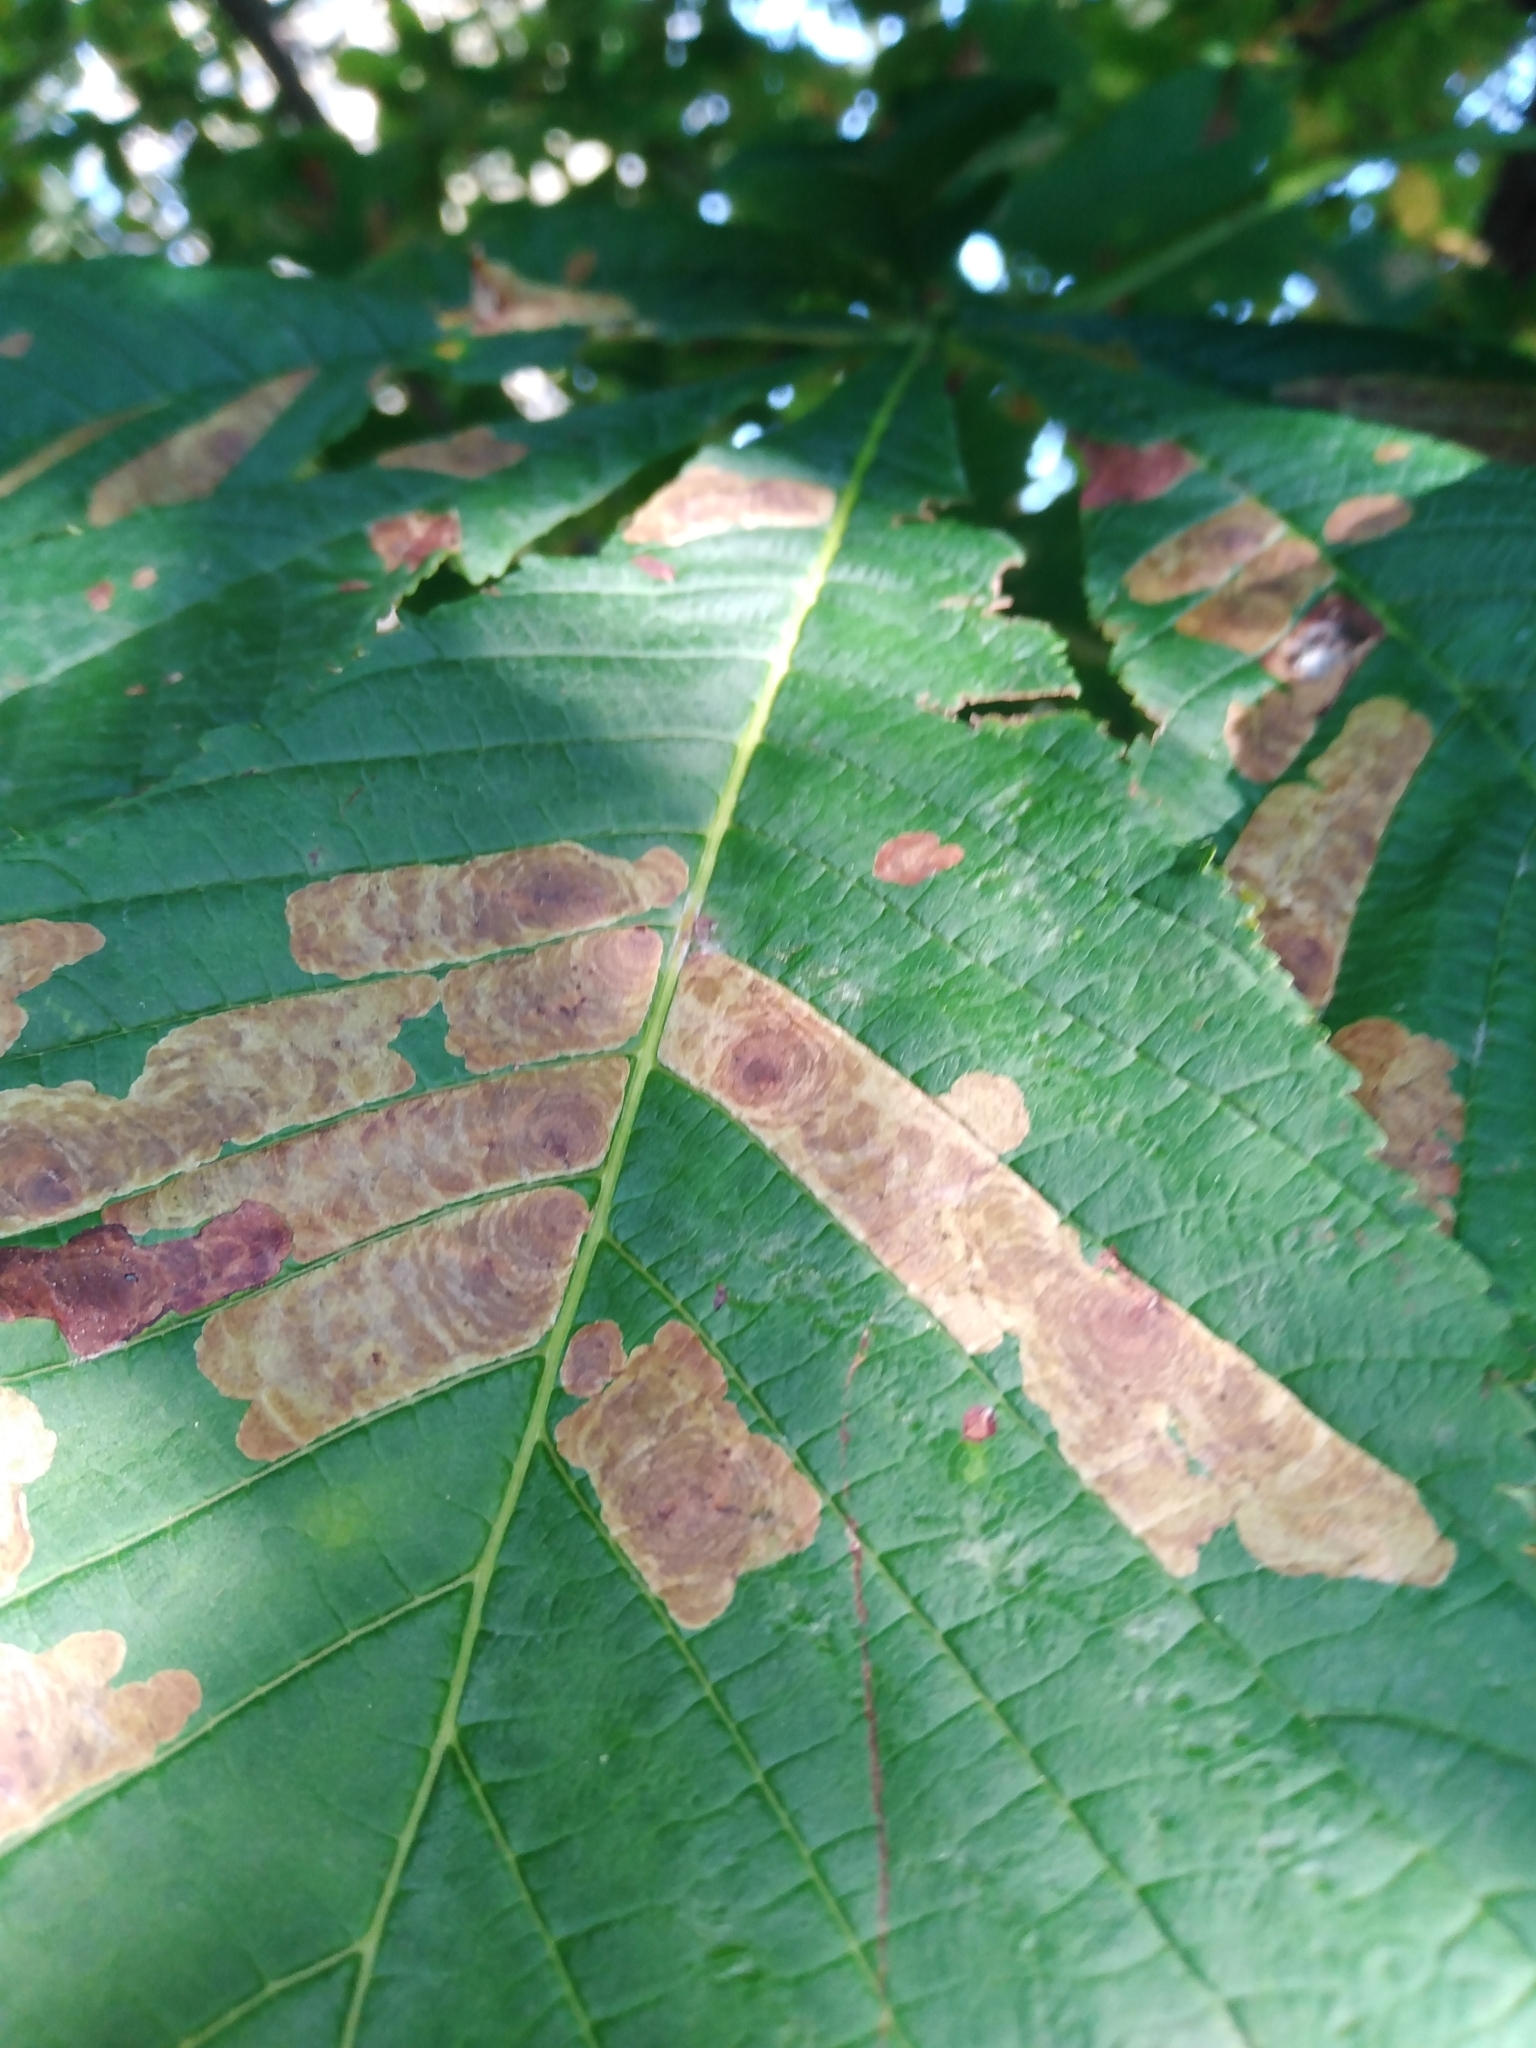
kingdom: Animalia
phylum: Arthropoda
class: Insecta
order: Lepidoptera
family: Gracillariidae
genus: Cameraria
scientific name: Cameraria ohridella
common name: Horse-chestnut leaf-miner
